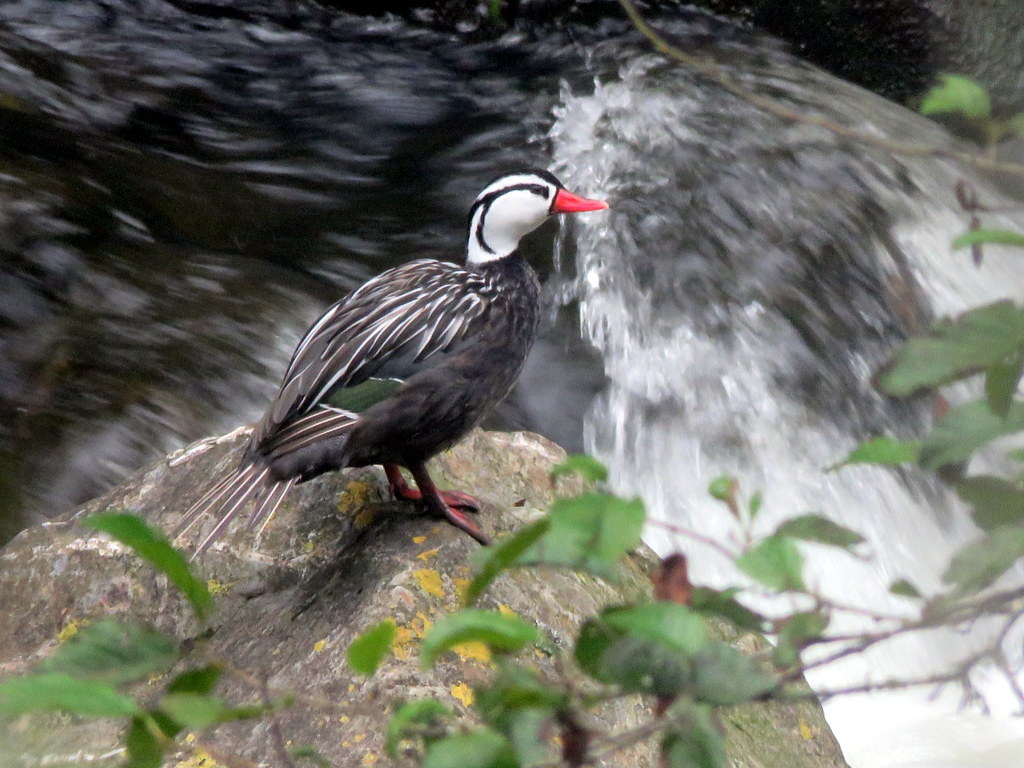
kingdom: Animalia
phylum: Chordata
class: Aves
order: Anseriformes
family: Anatidae
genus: Merganetta
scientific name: Merganetta armata
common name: Torrent duck
